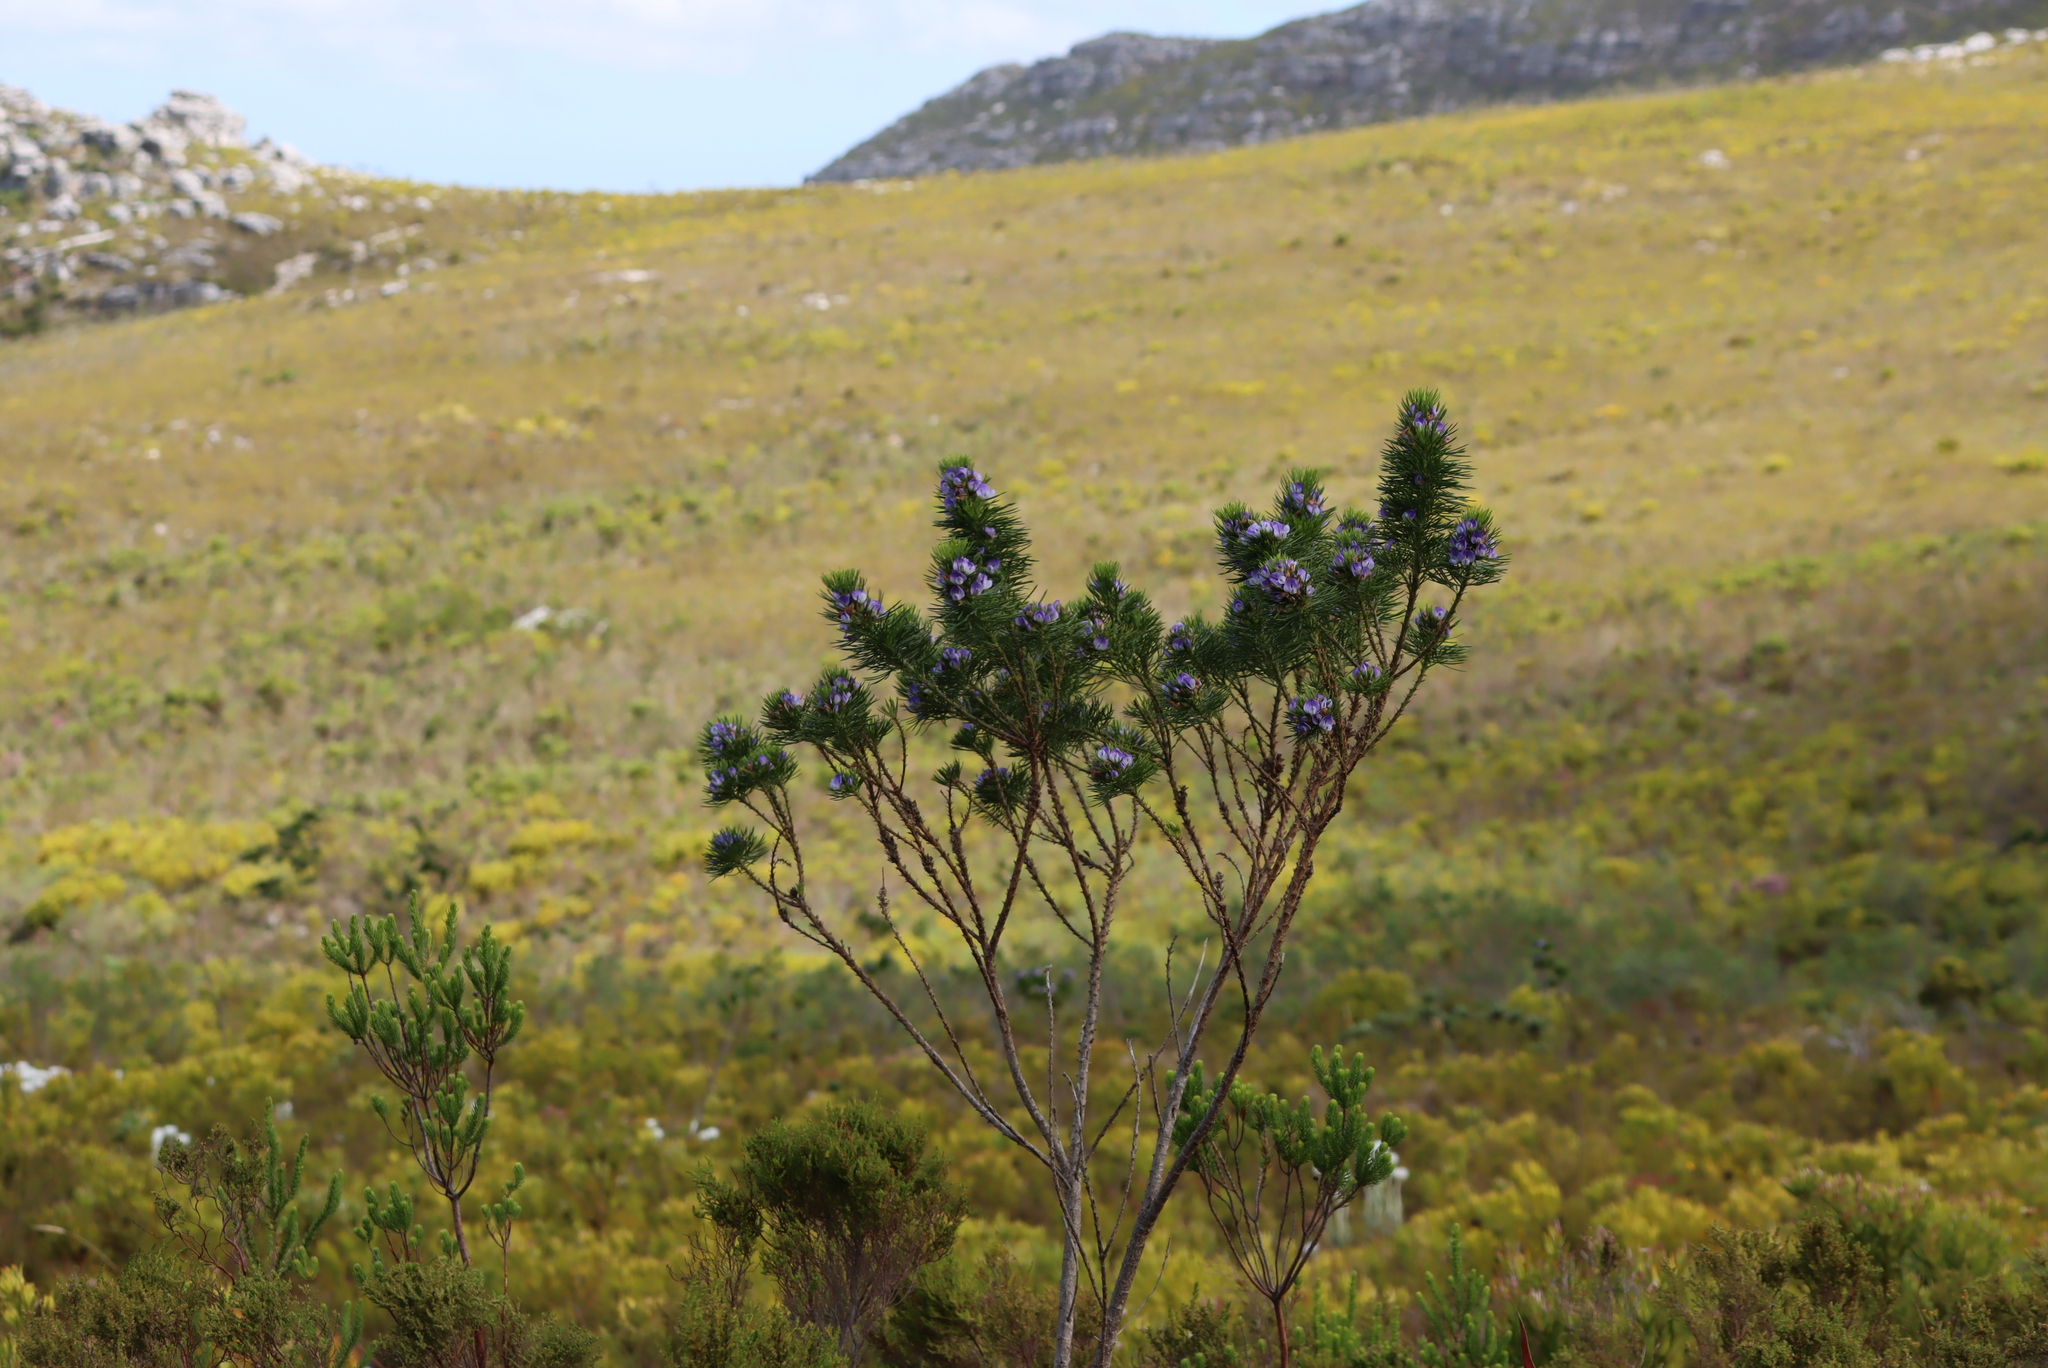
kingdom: Plantae
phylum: Tracheophyta
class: Magnoliopsida
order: Fabales
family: Fabaceae
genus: Psoralea
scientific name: Psoralea pinnata
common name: African scurfpea
